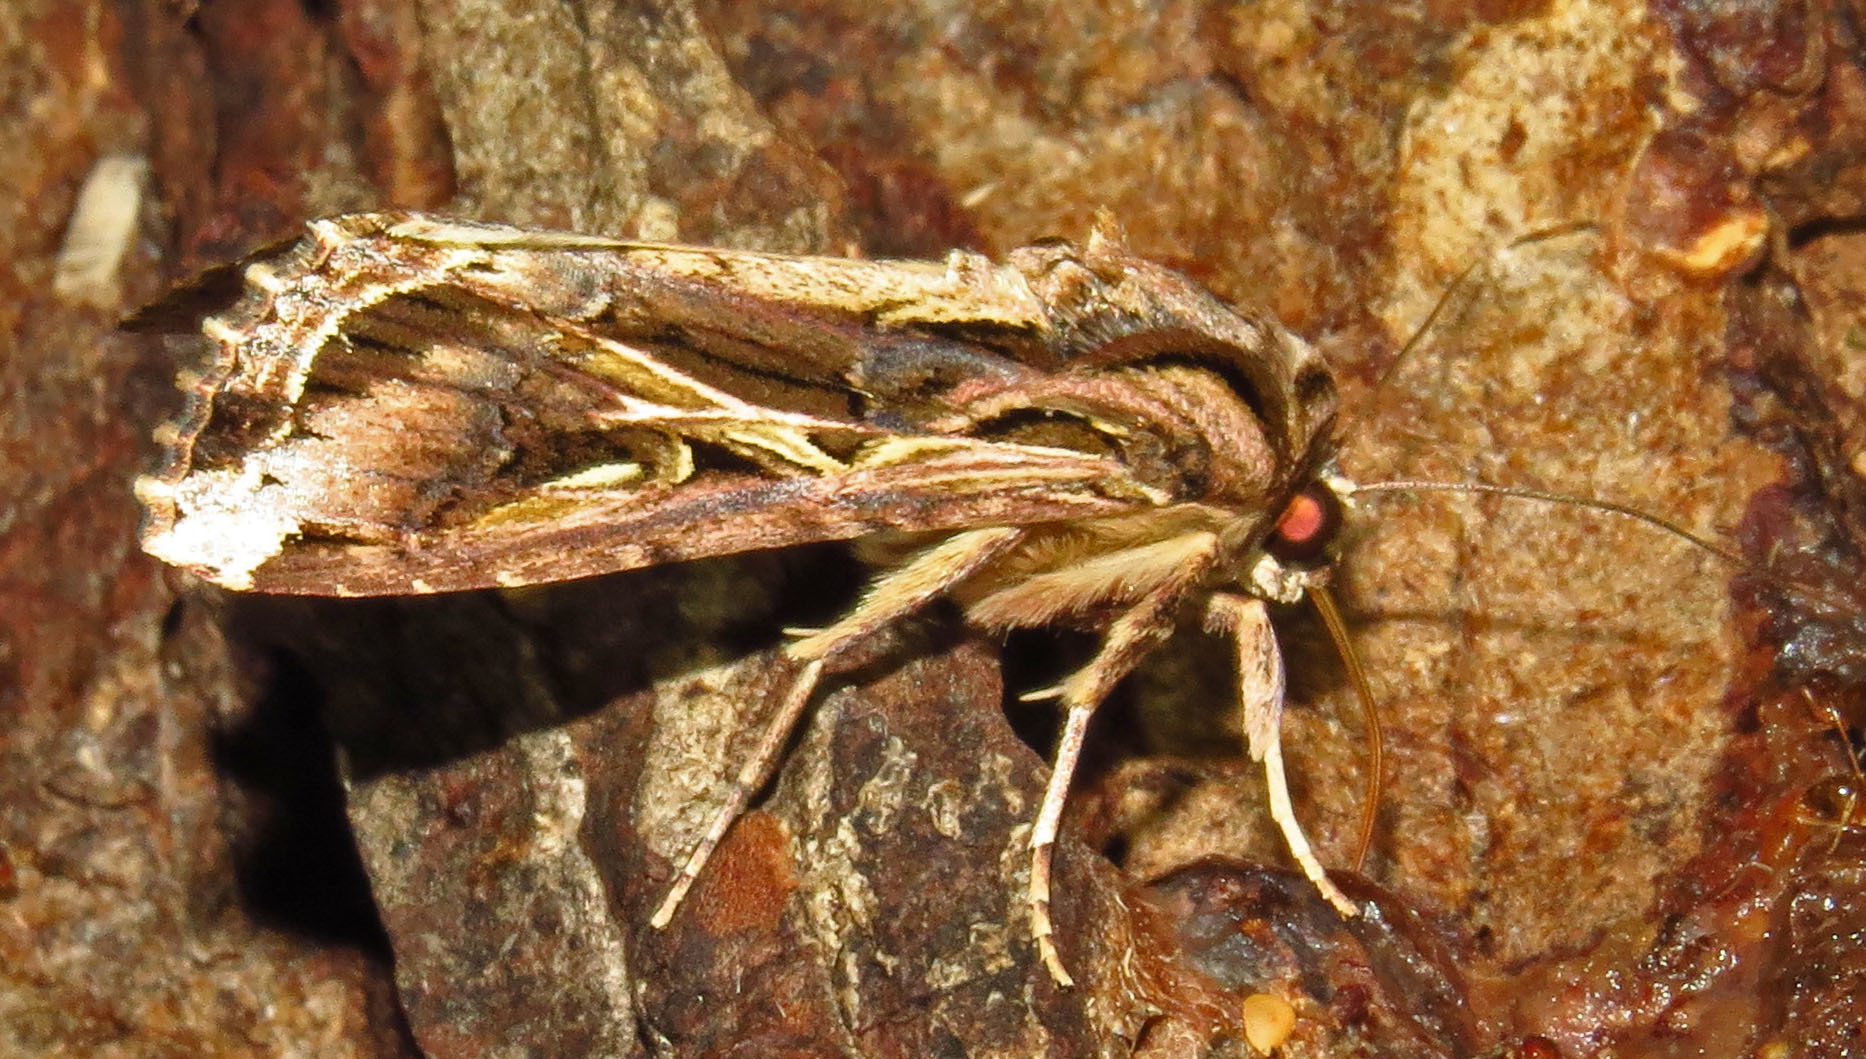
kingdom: Animalia
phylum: Arthropoda
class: Insecta
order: Lepidoptera
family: Noctuidae
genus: Spodoptera
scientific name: Spodoptera dolichos
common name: Sweetpotato armyworm
